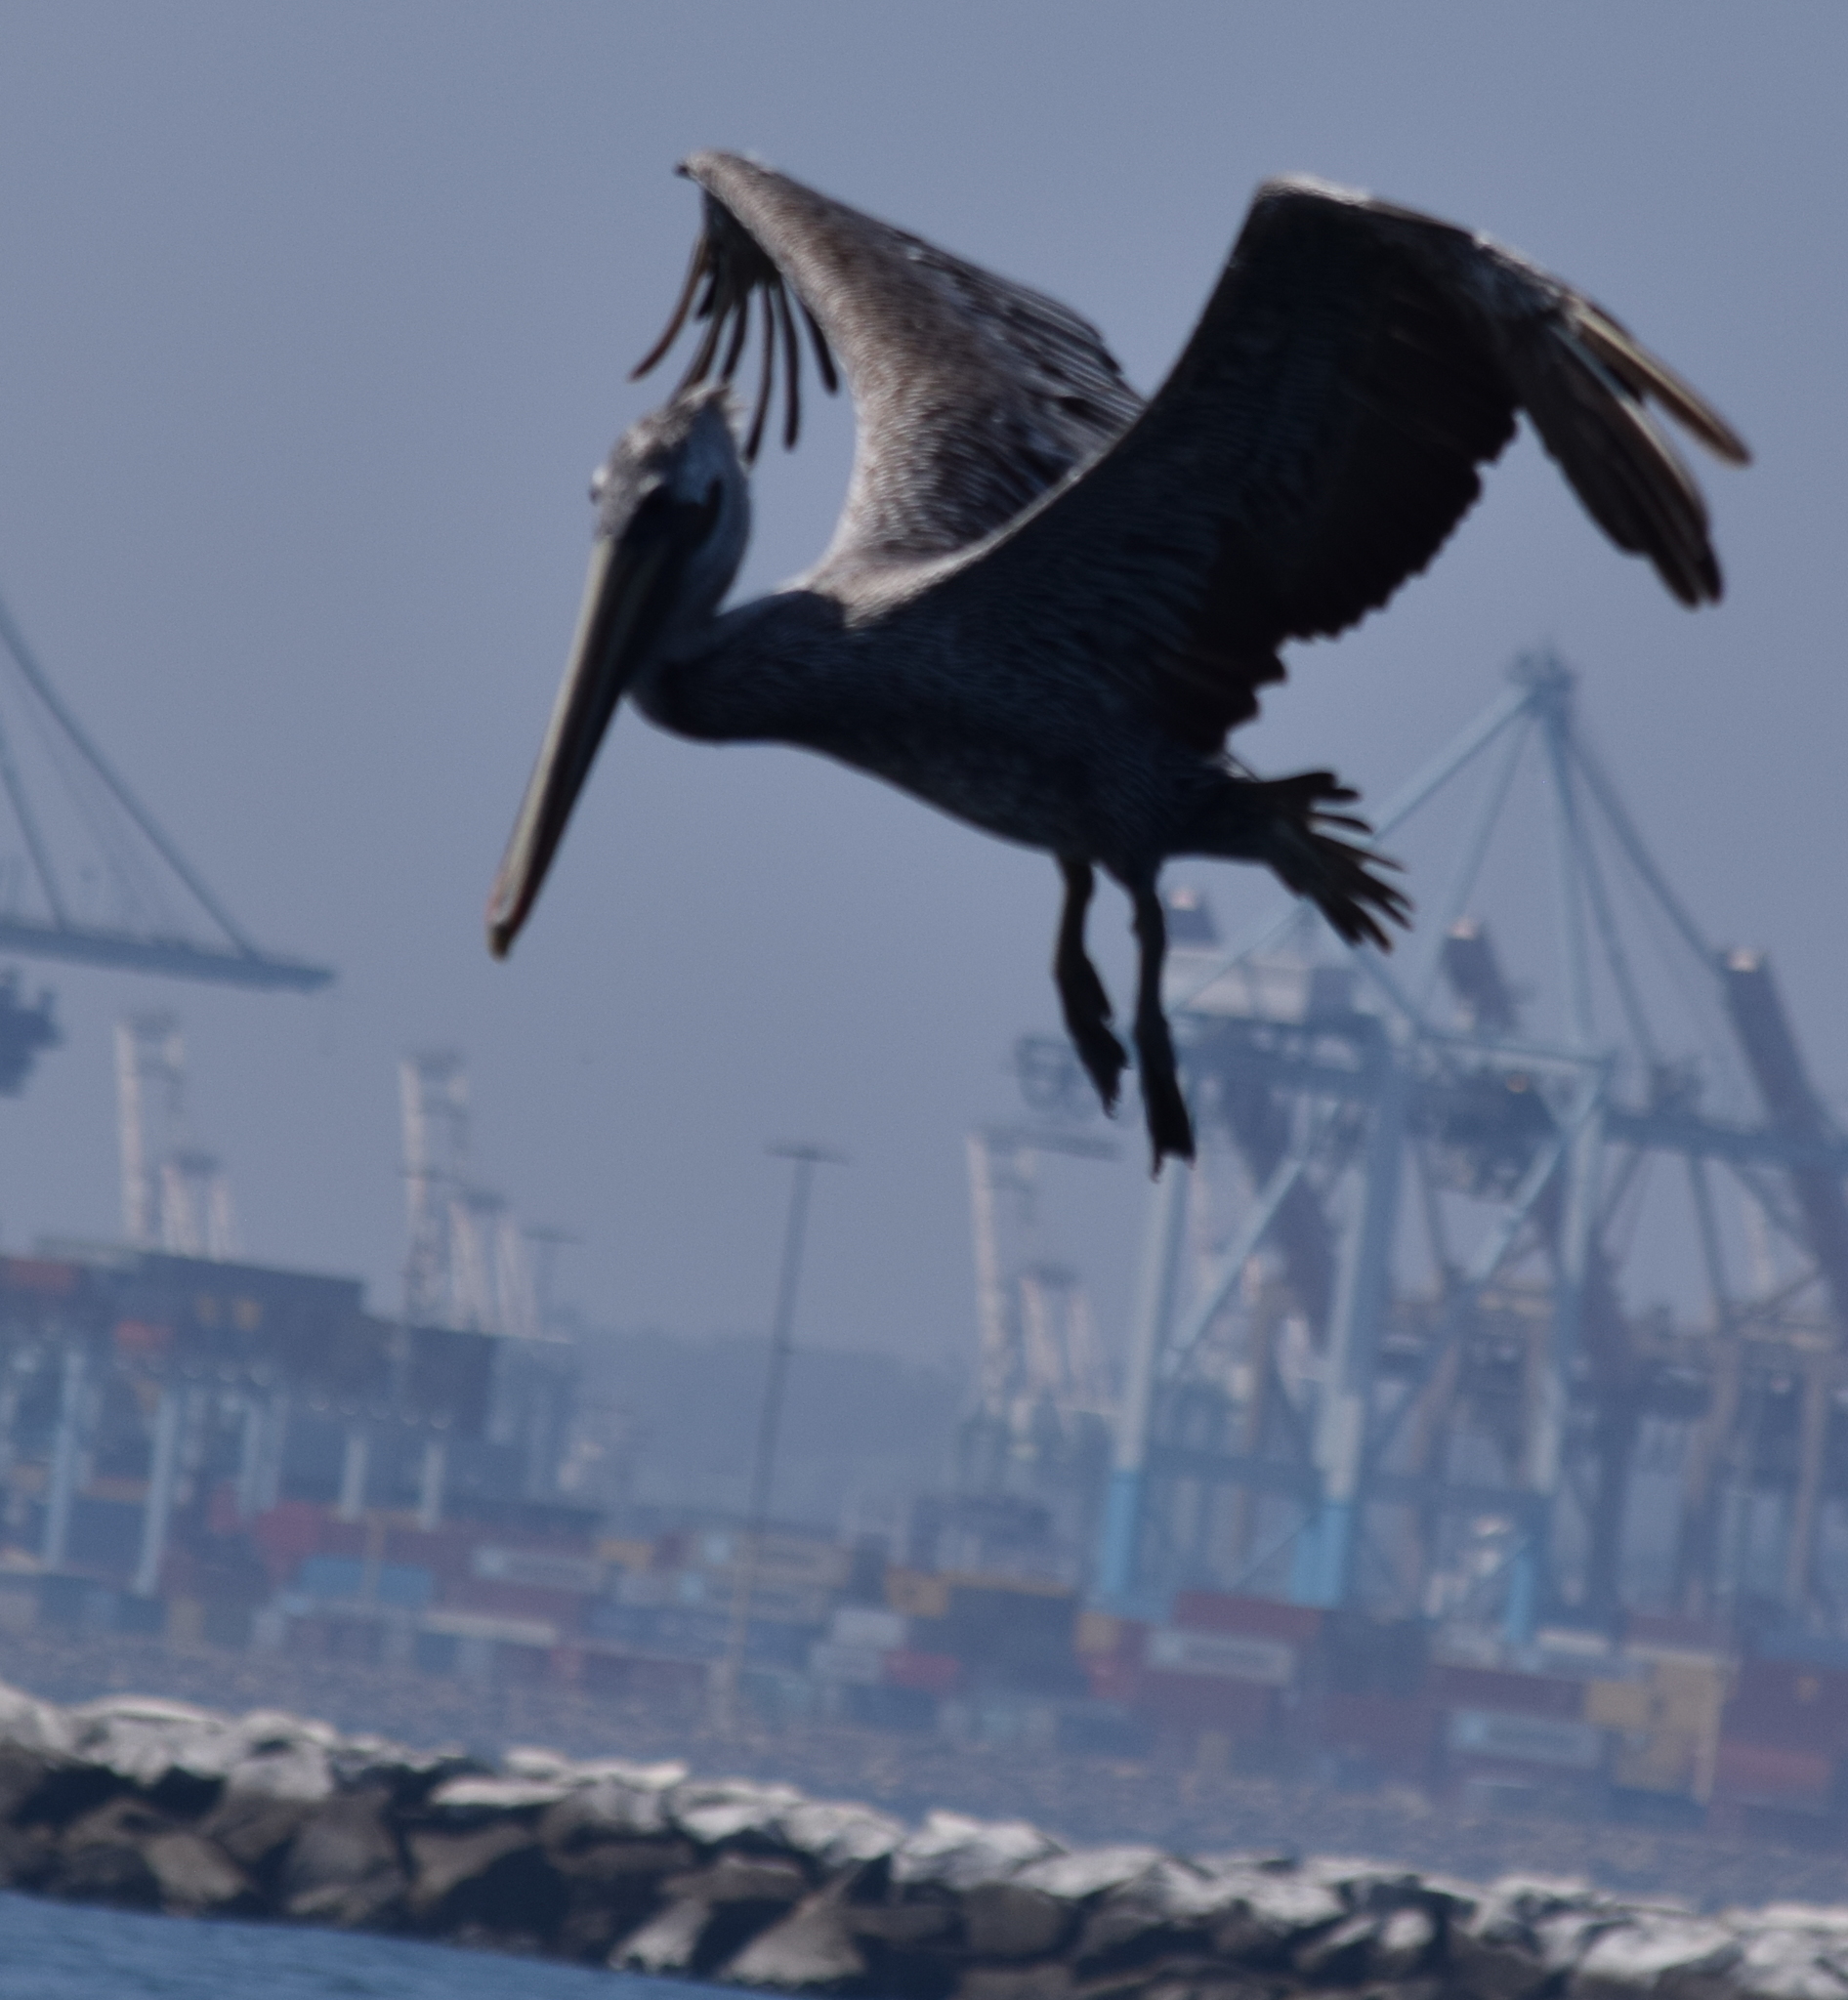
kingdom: Animalia
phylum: Chordata
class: Aves
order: Pelecaniformes
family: Pelecanidae
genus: Pelecanus
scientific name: Pelecanus occidentalis
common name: Brown pelican
